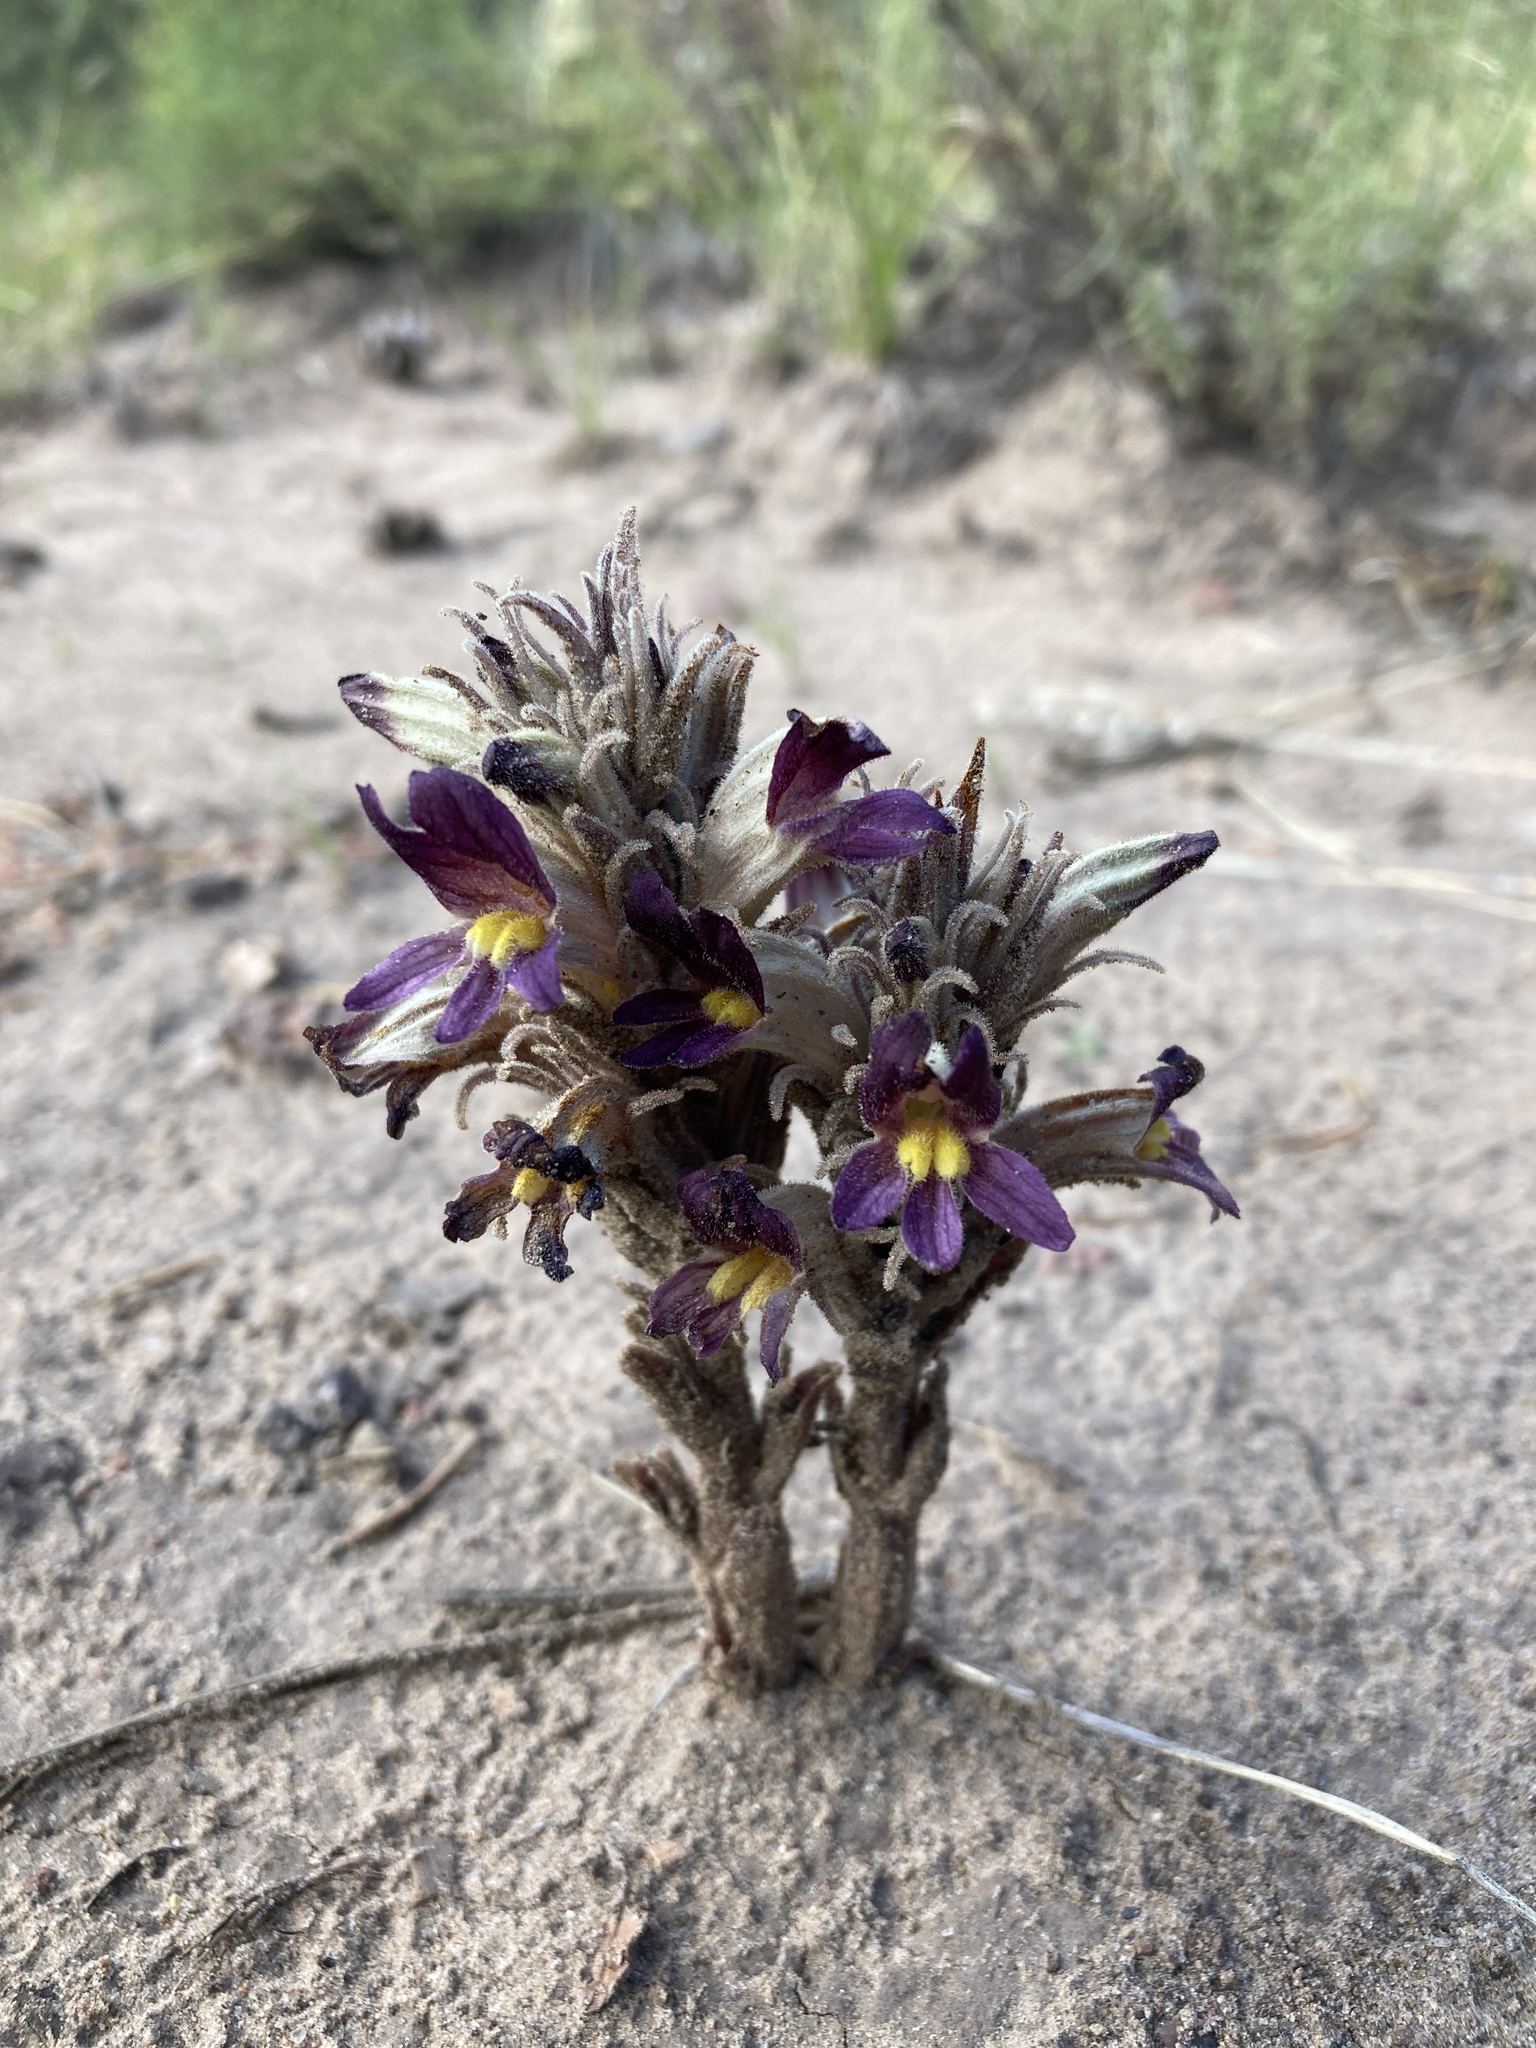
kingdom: Plantae
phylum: Tracheophyta
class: Magnoliopsida
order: Lamiales
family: Orobanchaceae
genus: Aphyllon
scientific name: Aphyllon multiflorum
